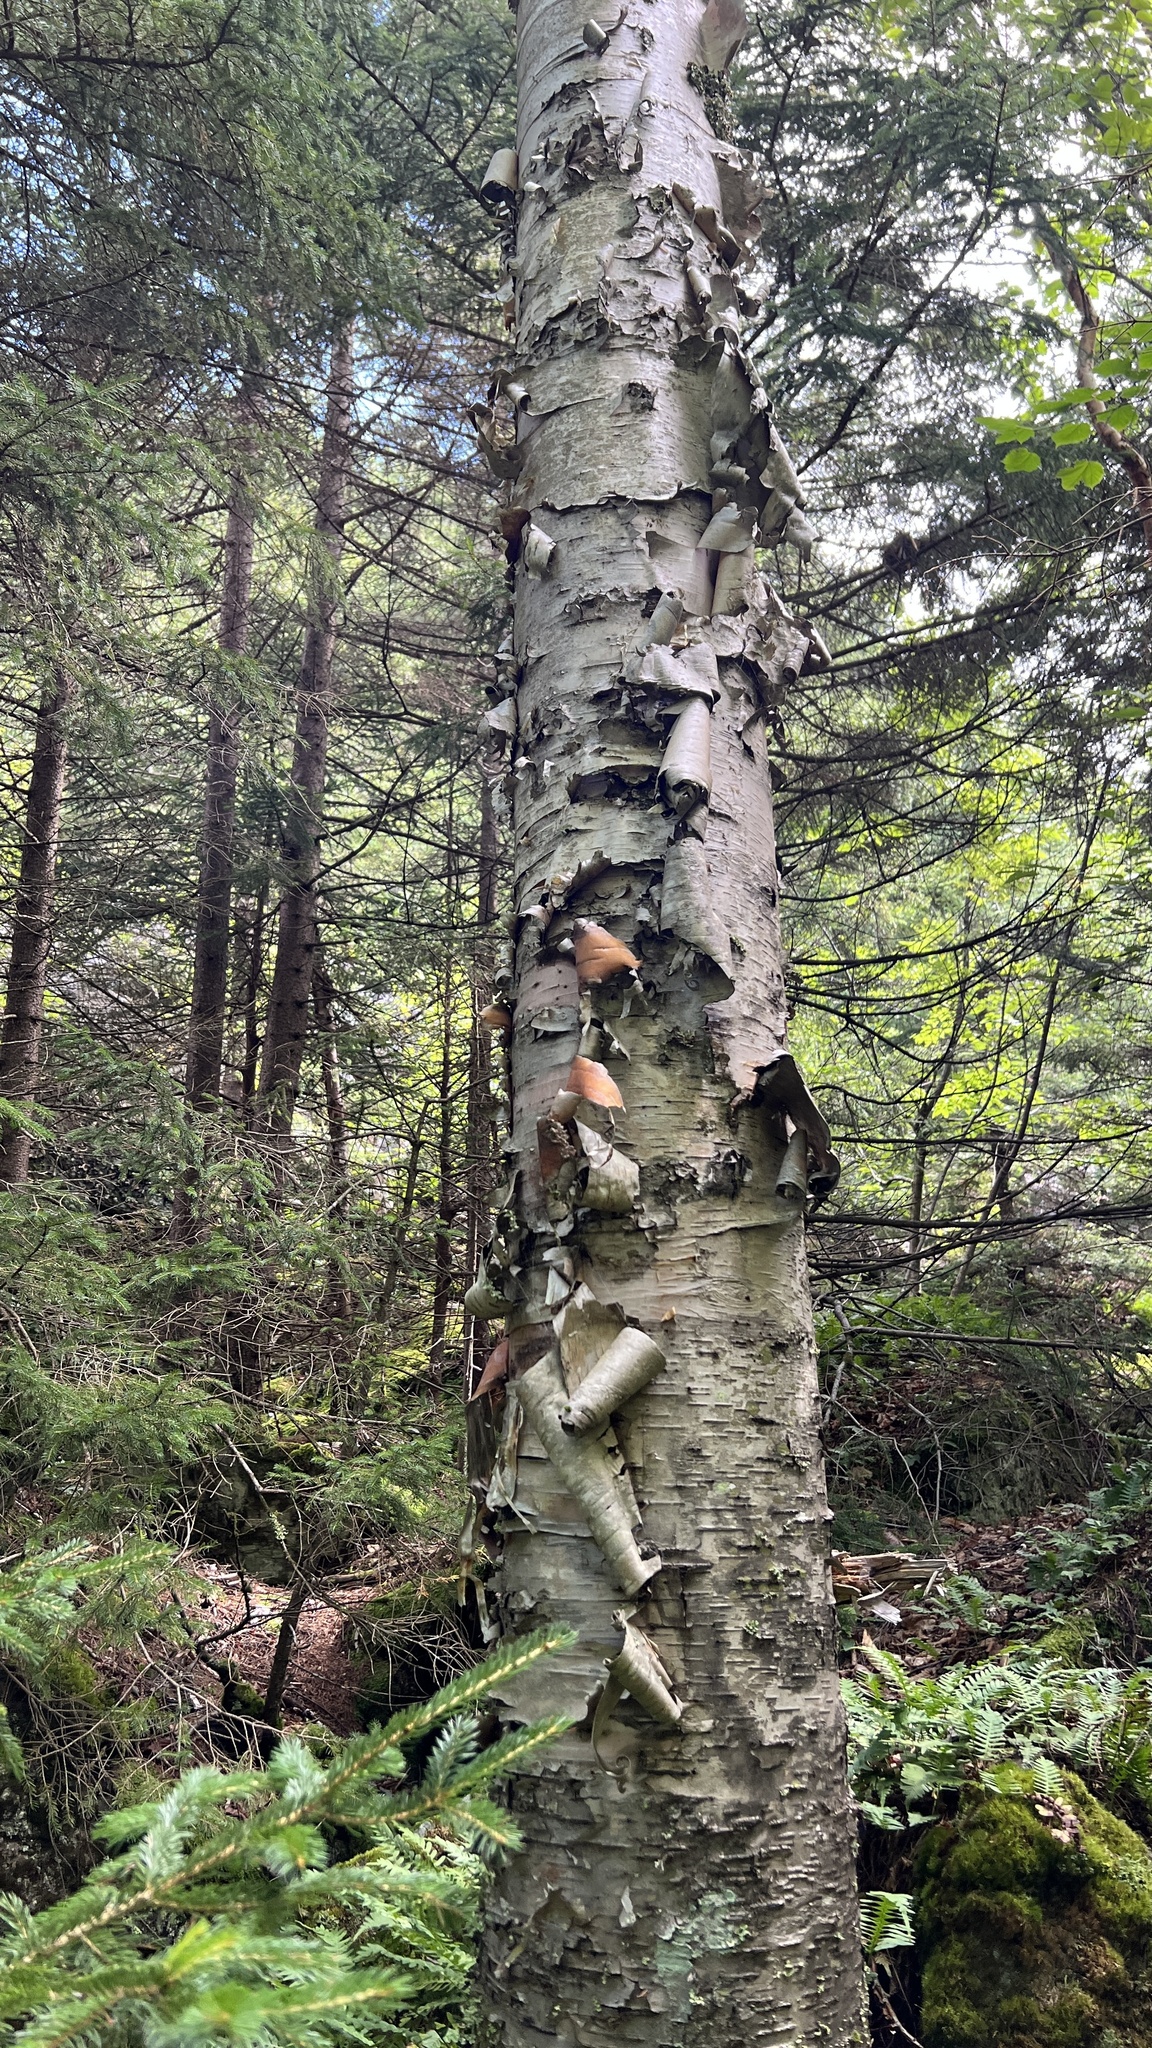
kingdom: Plantae
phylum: Tracheophyta
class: Magnoliopsida
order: Fagales
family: Betulaceae
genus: Betula
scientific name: Betula cordifolia
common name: Mountain white birch
